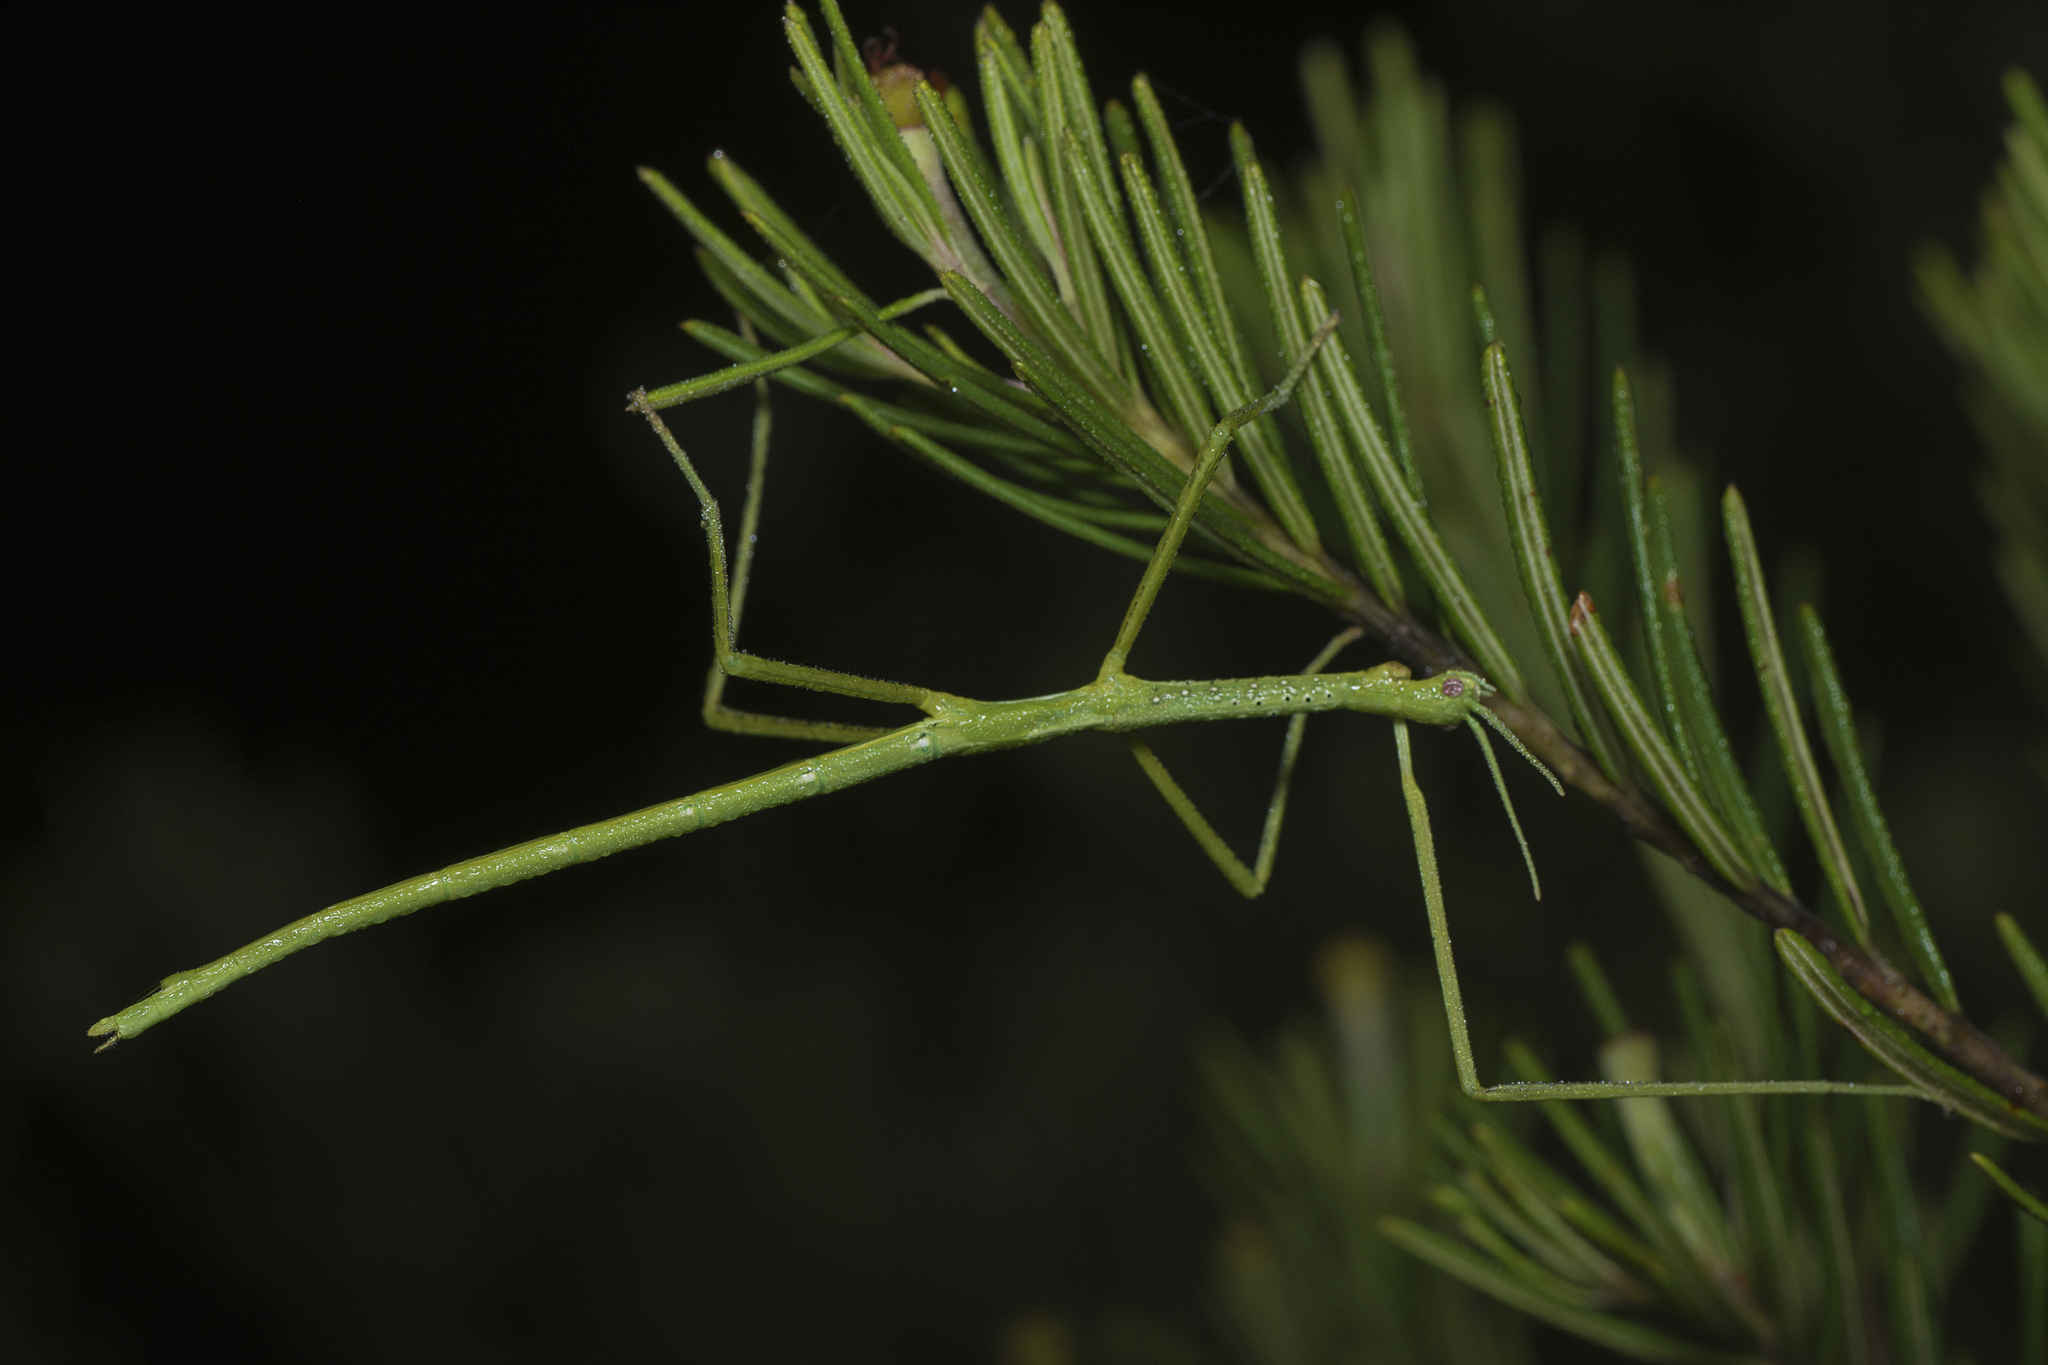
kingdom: Animalia
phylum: Arthropoda
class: Insecta
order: Phasmida
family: Phasmatidae
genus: Anchiale
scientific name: Anchiale austrotessulata
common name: Tessellated stick-insect
